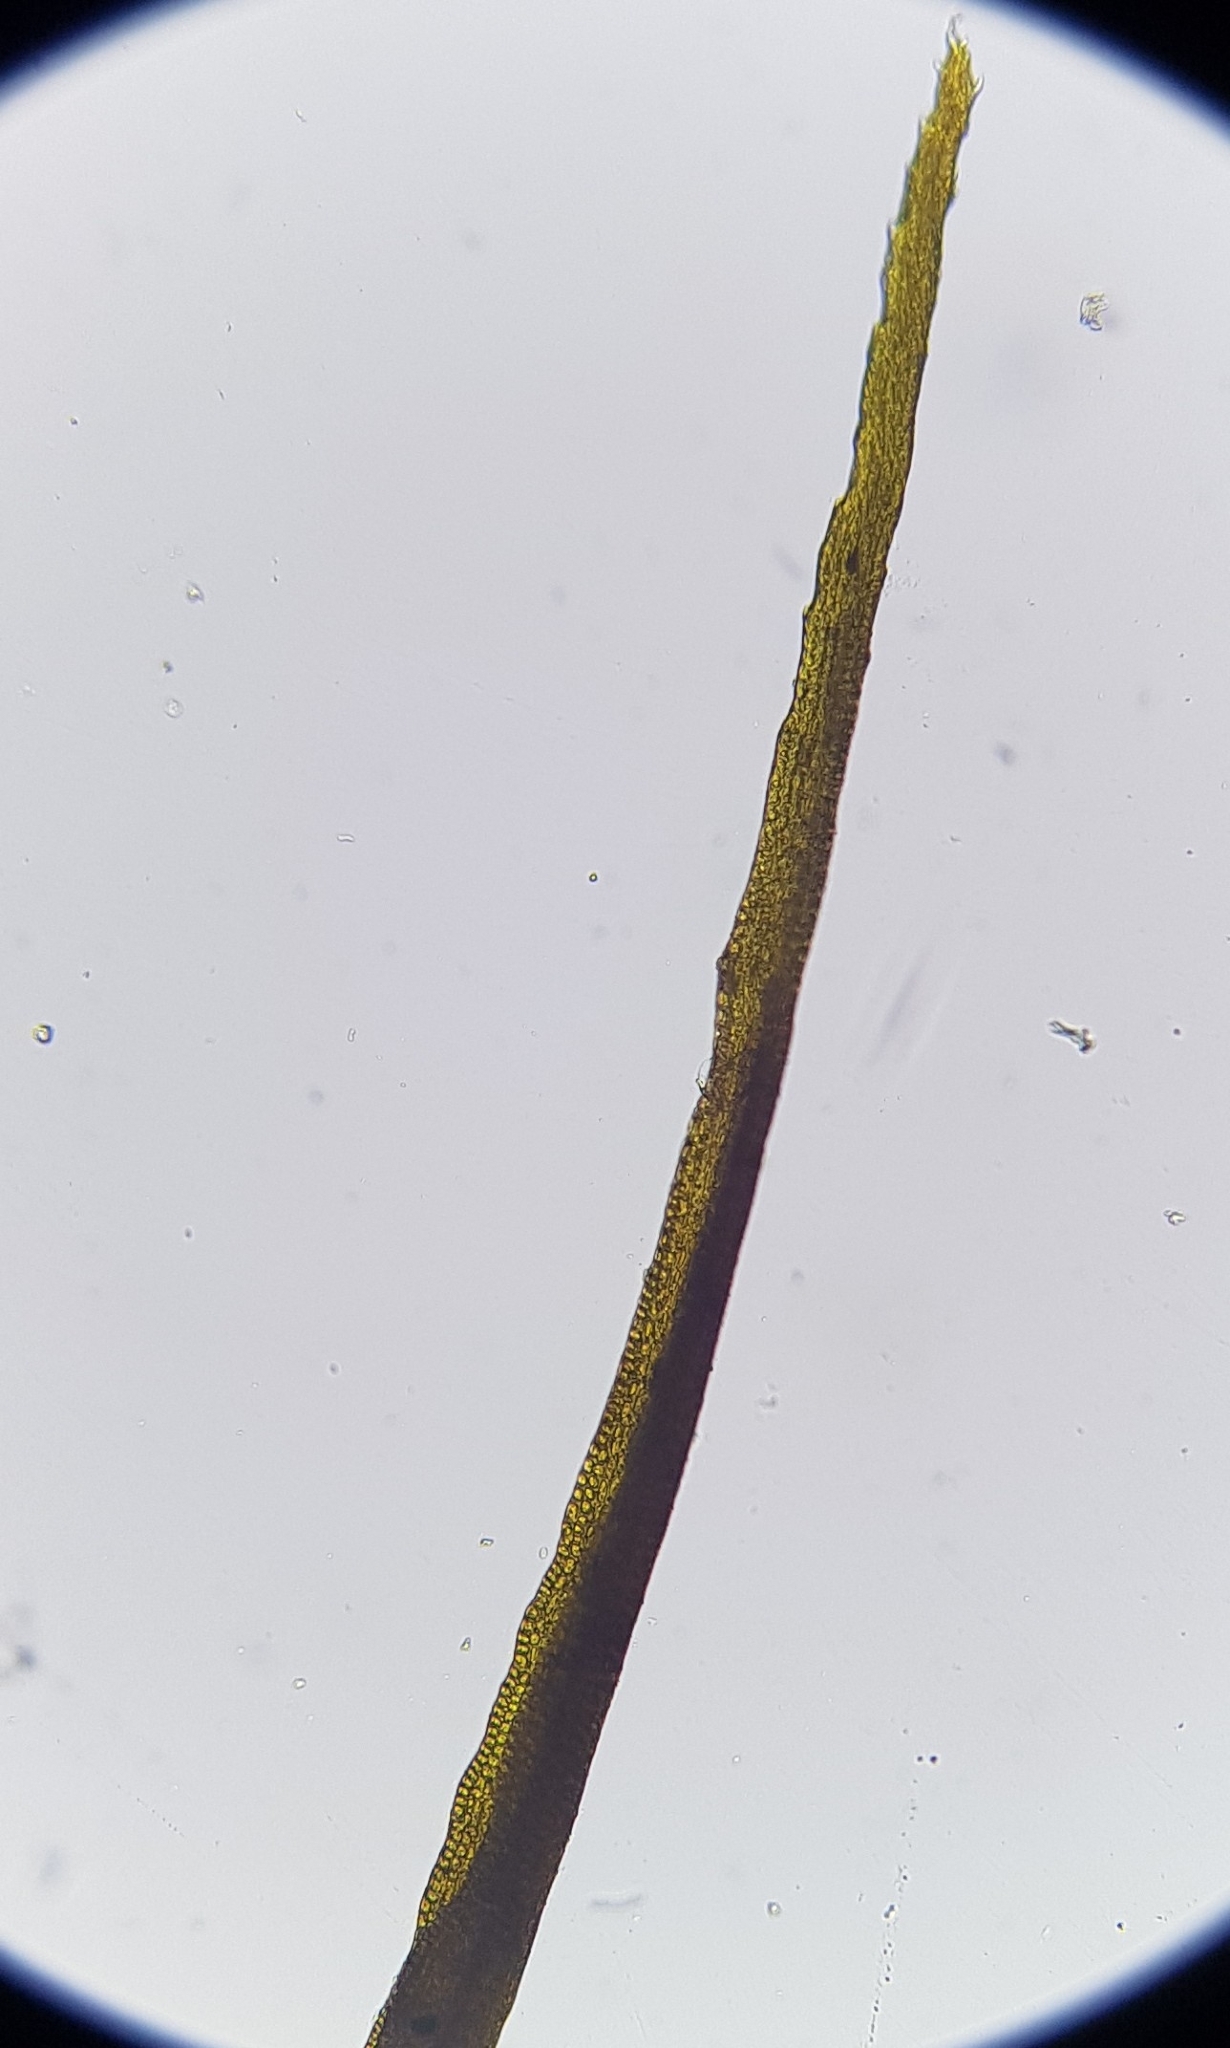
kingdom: Plantae
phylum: Bryophyta
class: Bryopsida
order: Scouleriales
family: Flexitrichaceae
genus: Flexitrichum
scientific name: Flexitrichum gracile
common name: Slender ditrichum
